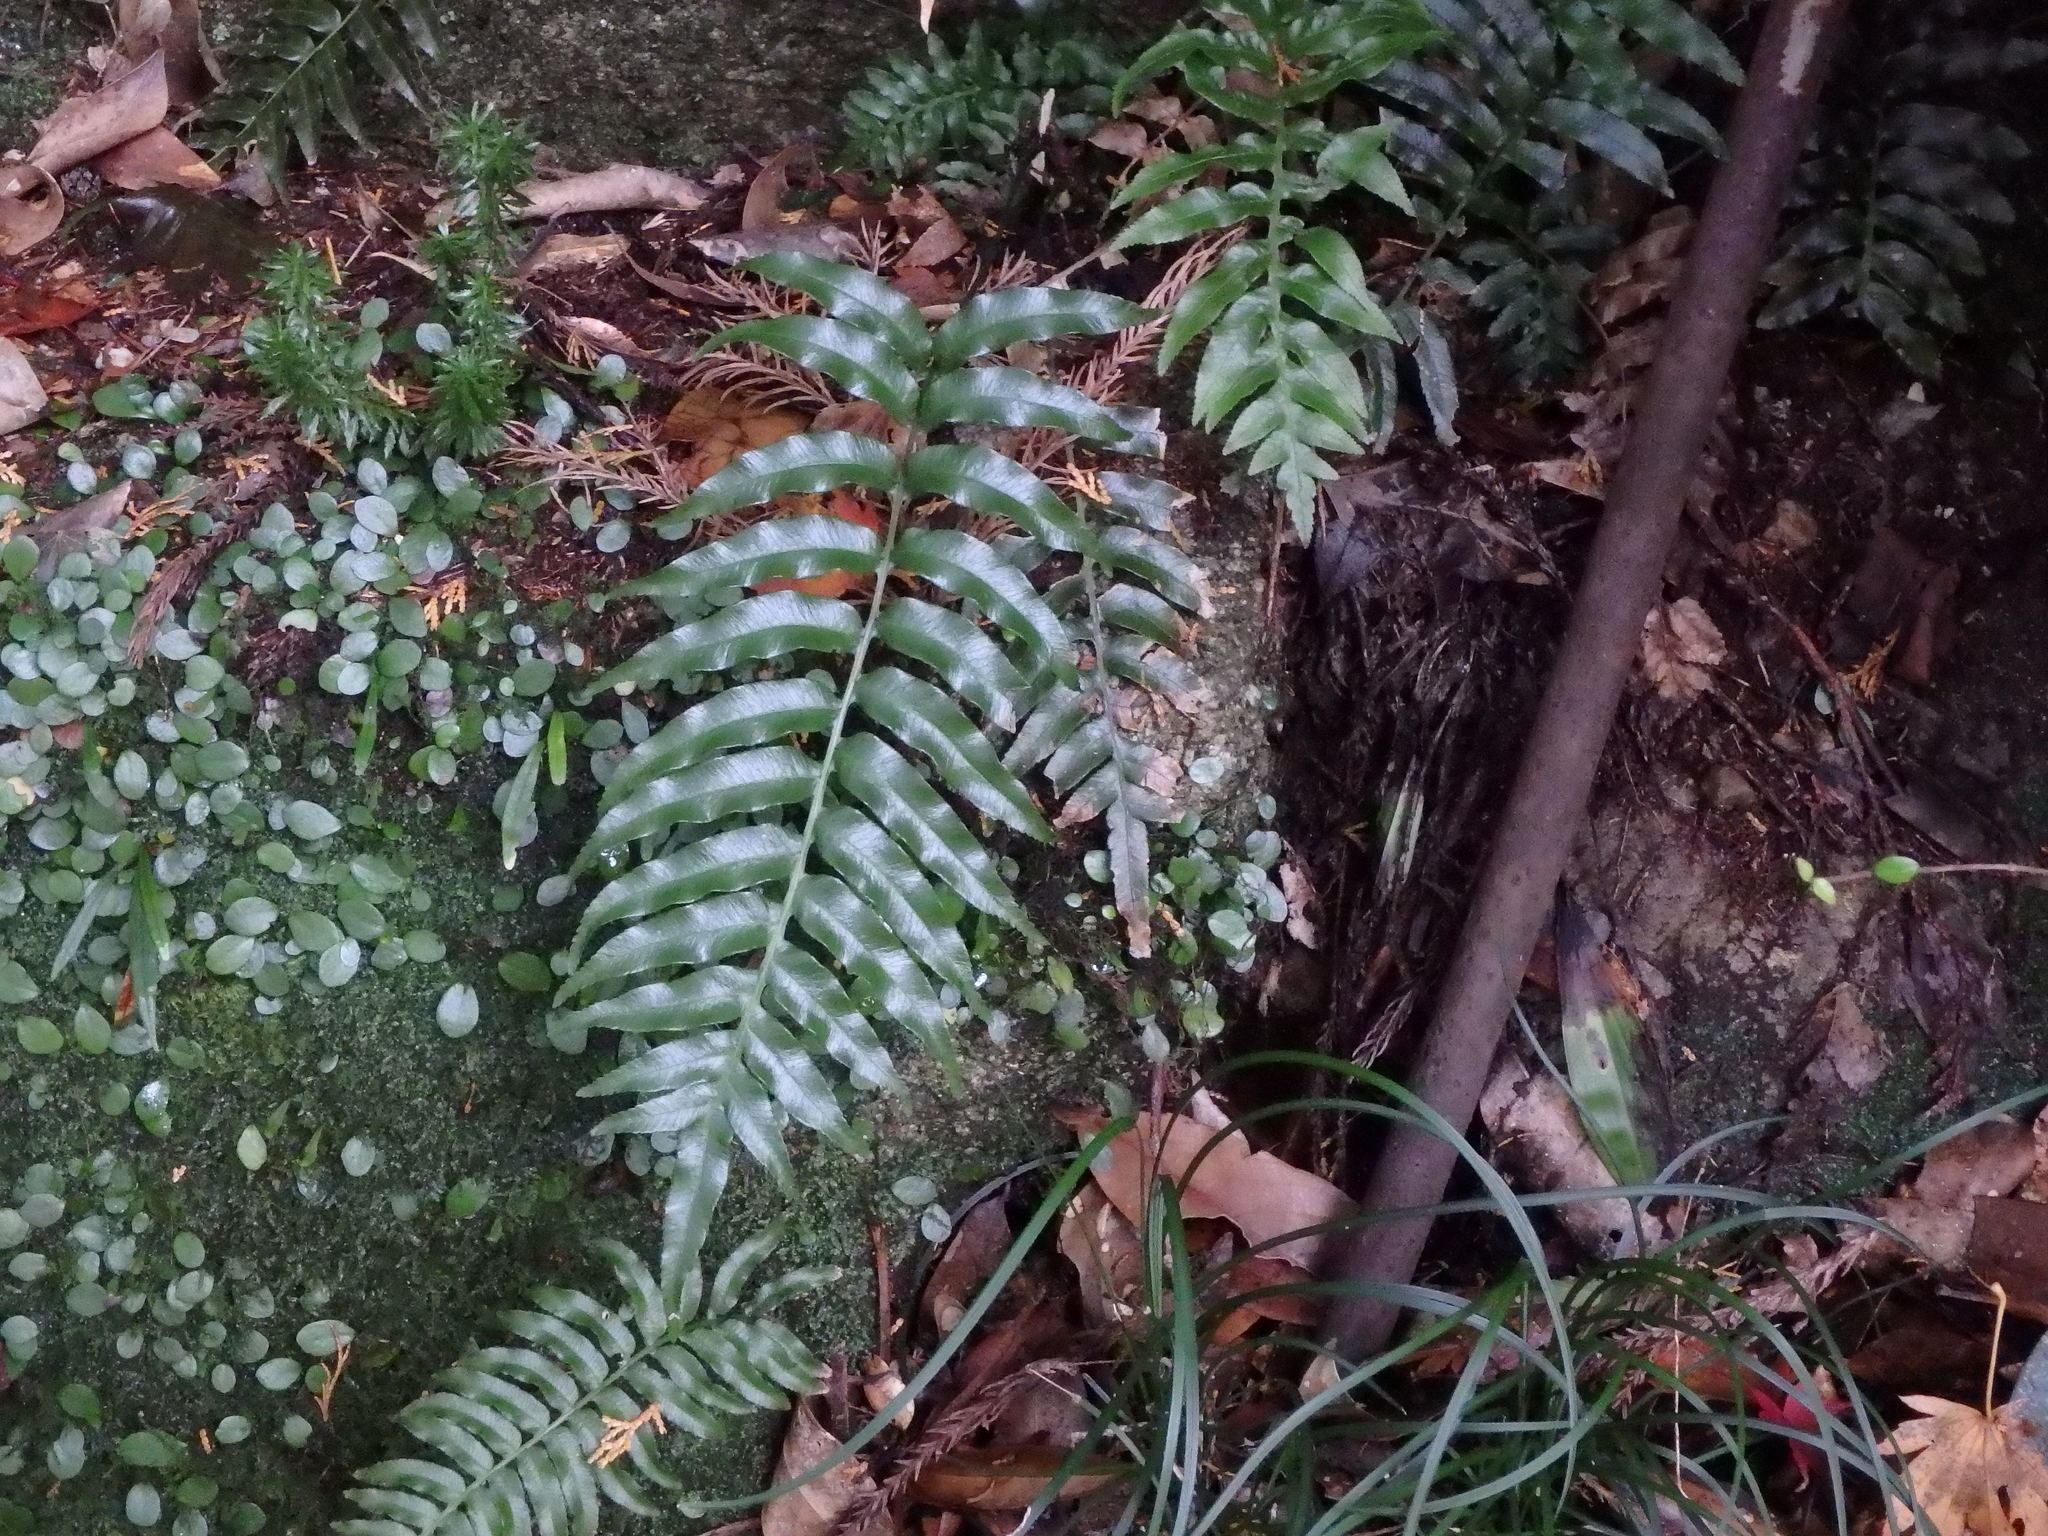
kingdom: Plantae
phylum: Tracheophyta
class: Polypodiopsida
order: Cyatheales
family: Plagiogyriaceae
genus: Plagiogyria
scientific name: Plagiogyria japonica
